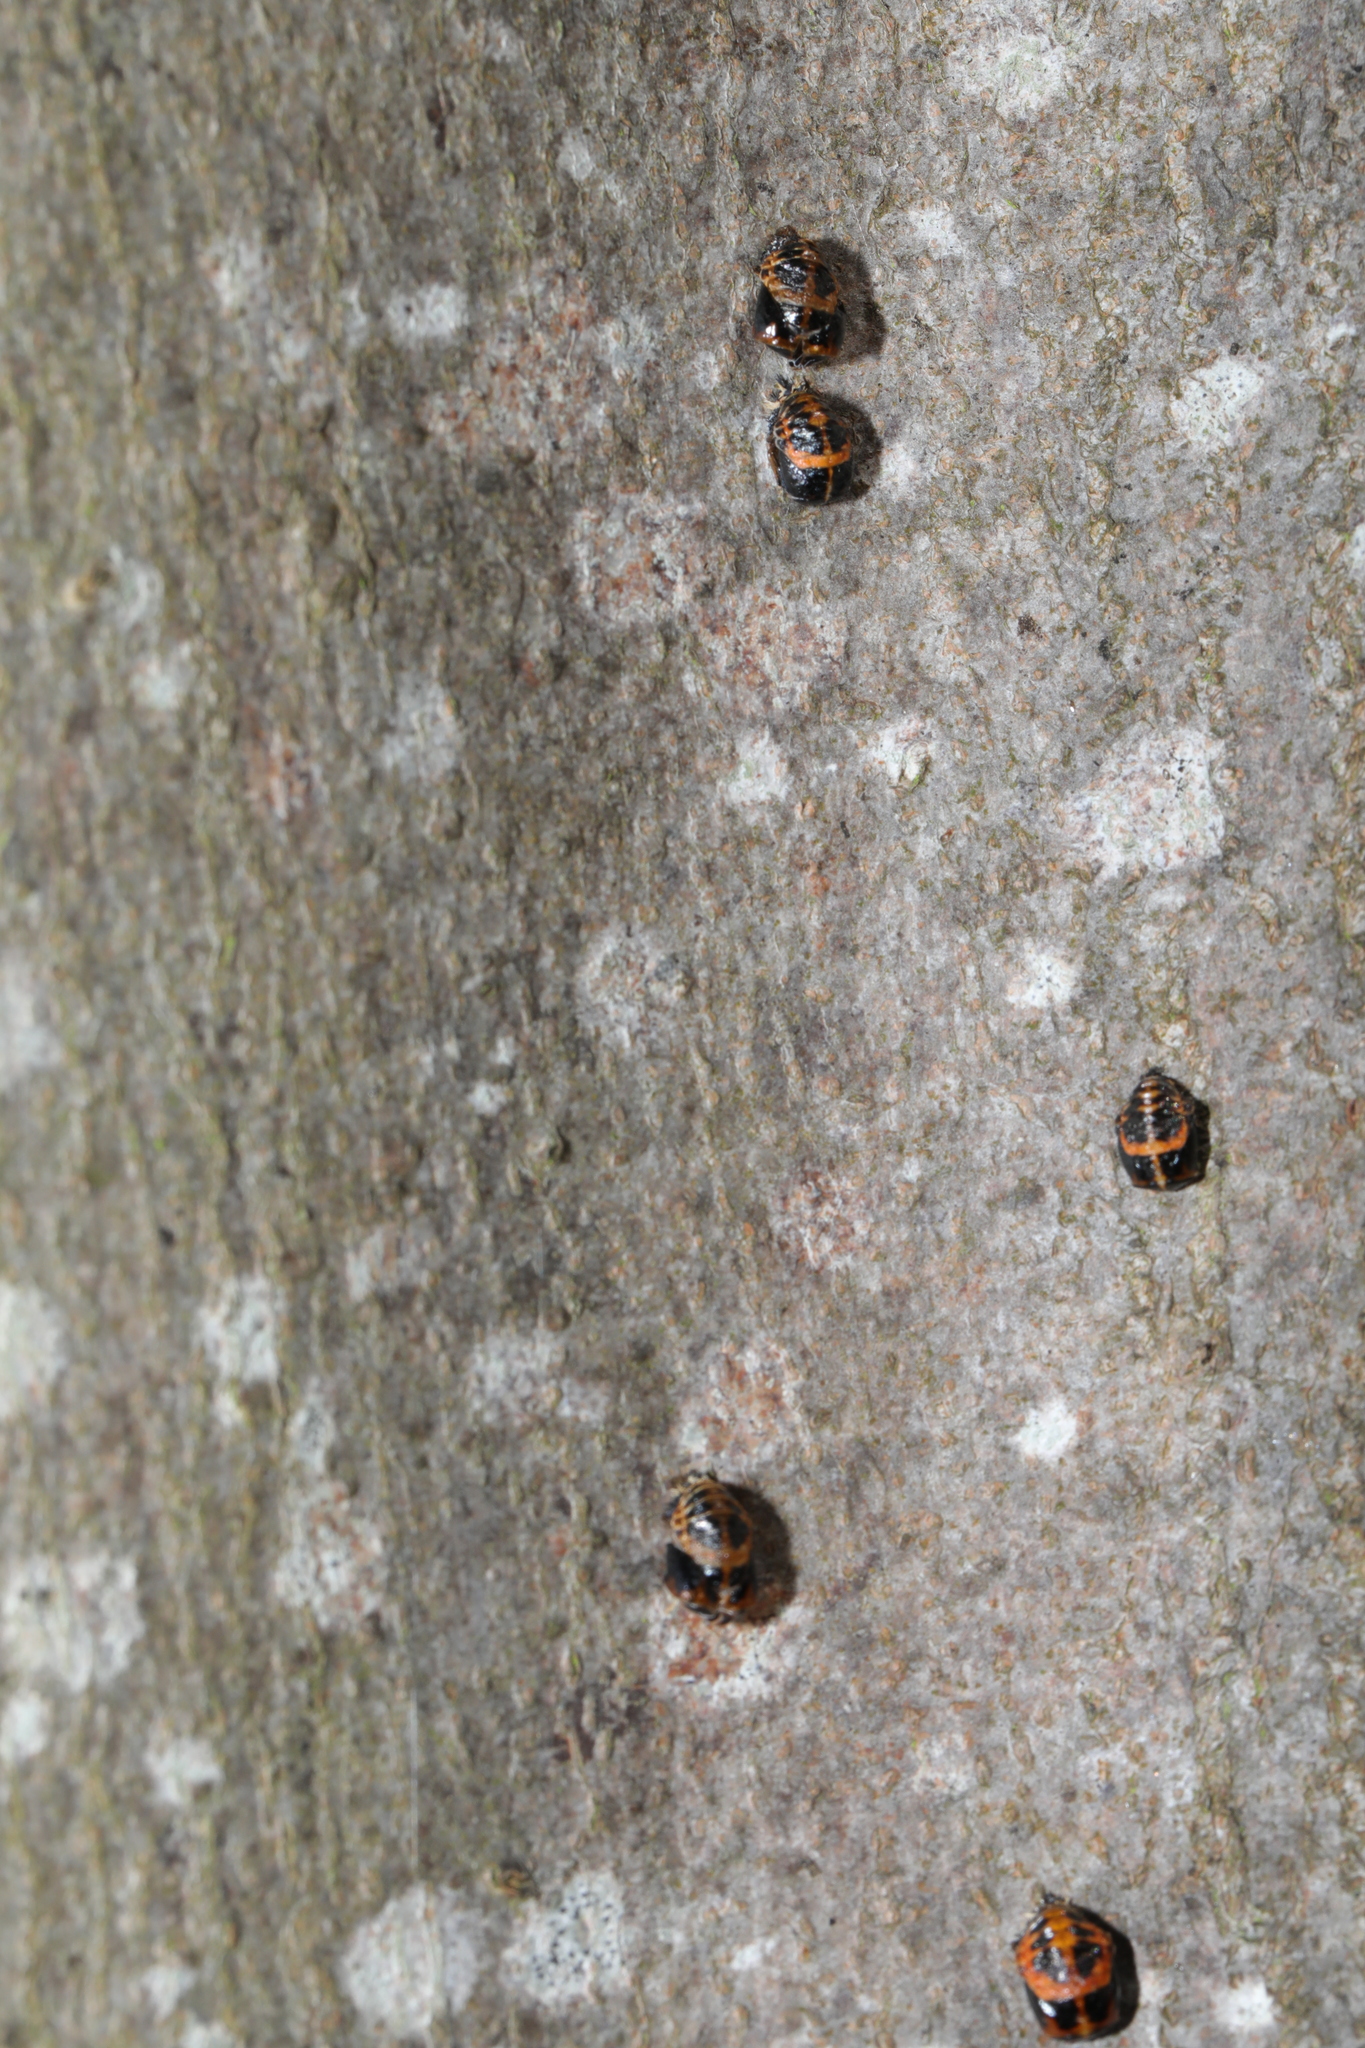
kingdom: Animalia
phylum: Arthropoda
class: Insecta
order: Coleoptera
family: Coccinellidae
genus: Harmonia
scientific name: Harmonia axyridis
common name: Harlequin ladybird
